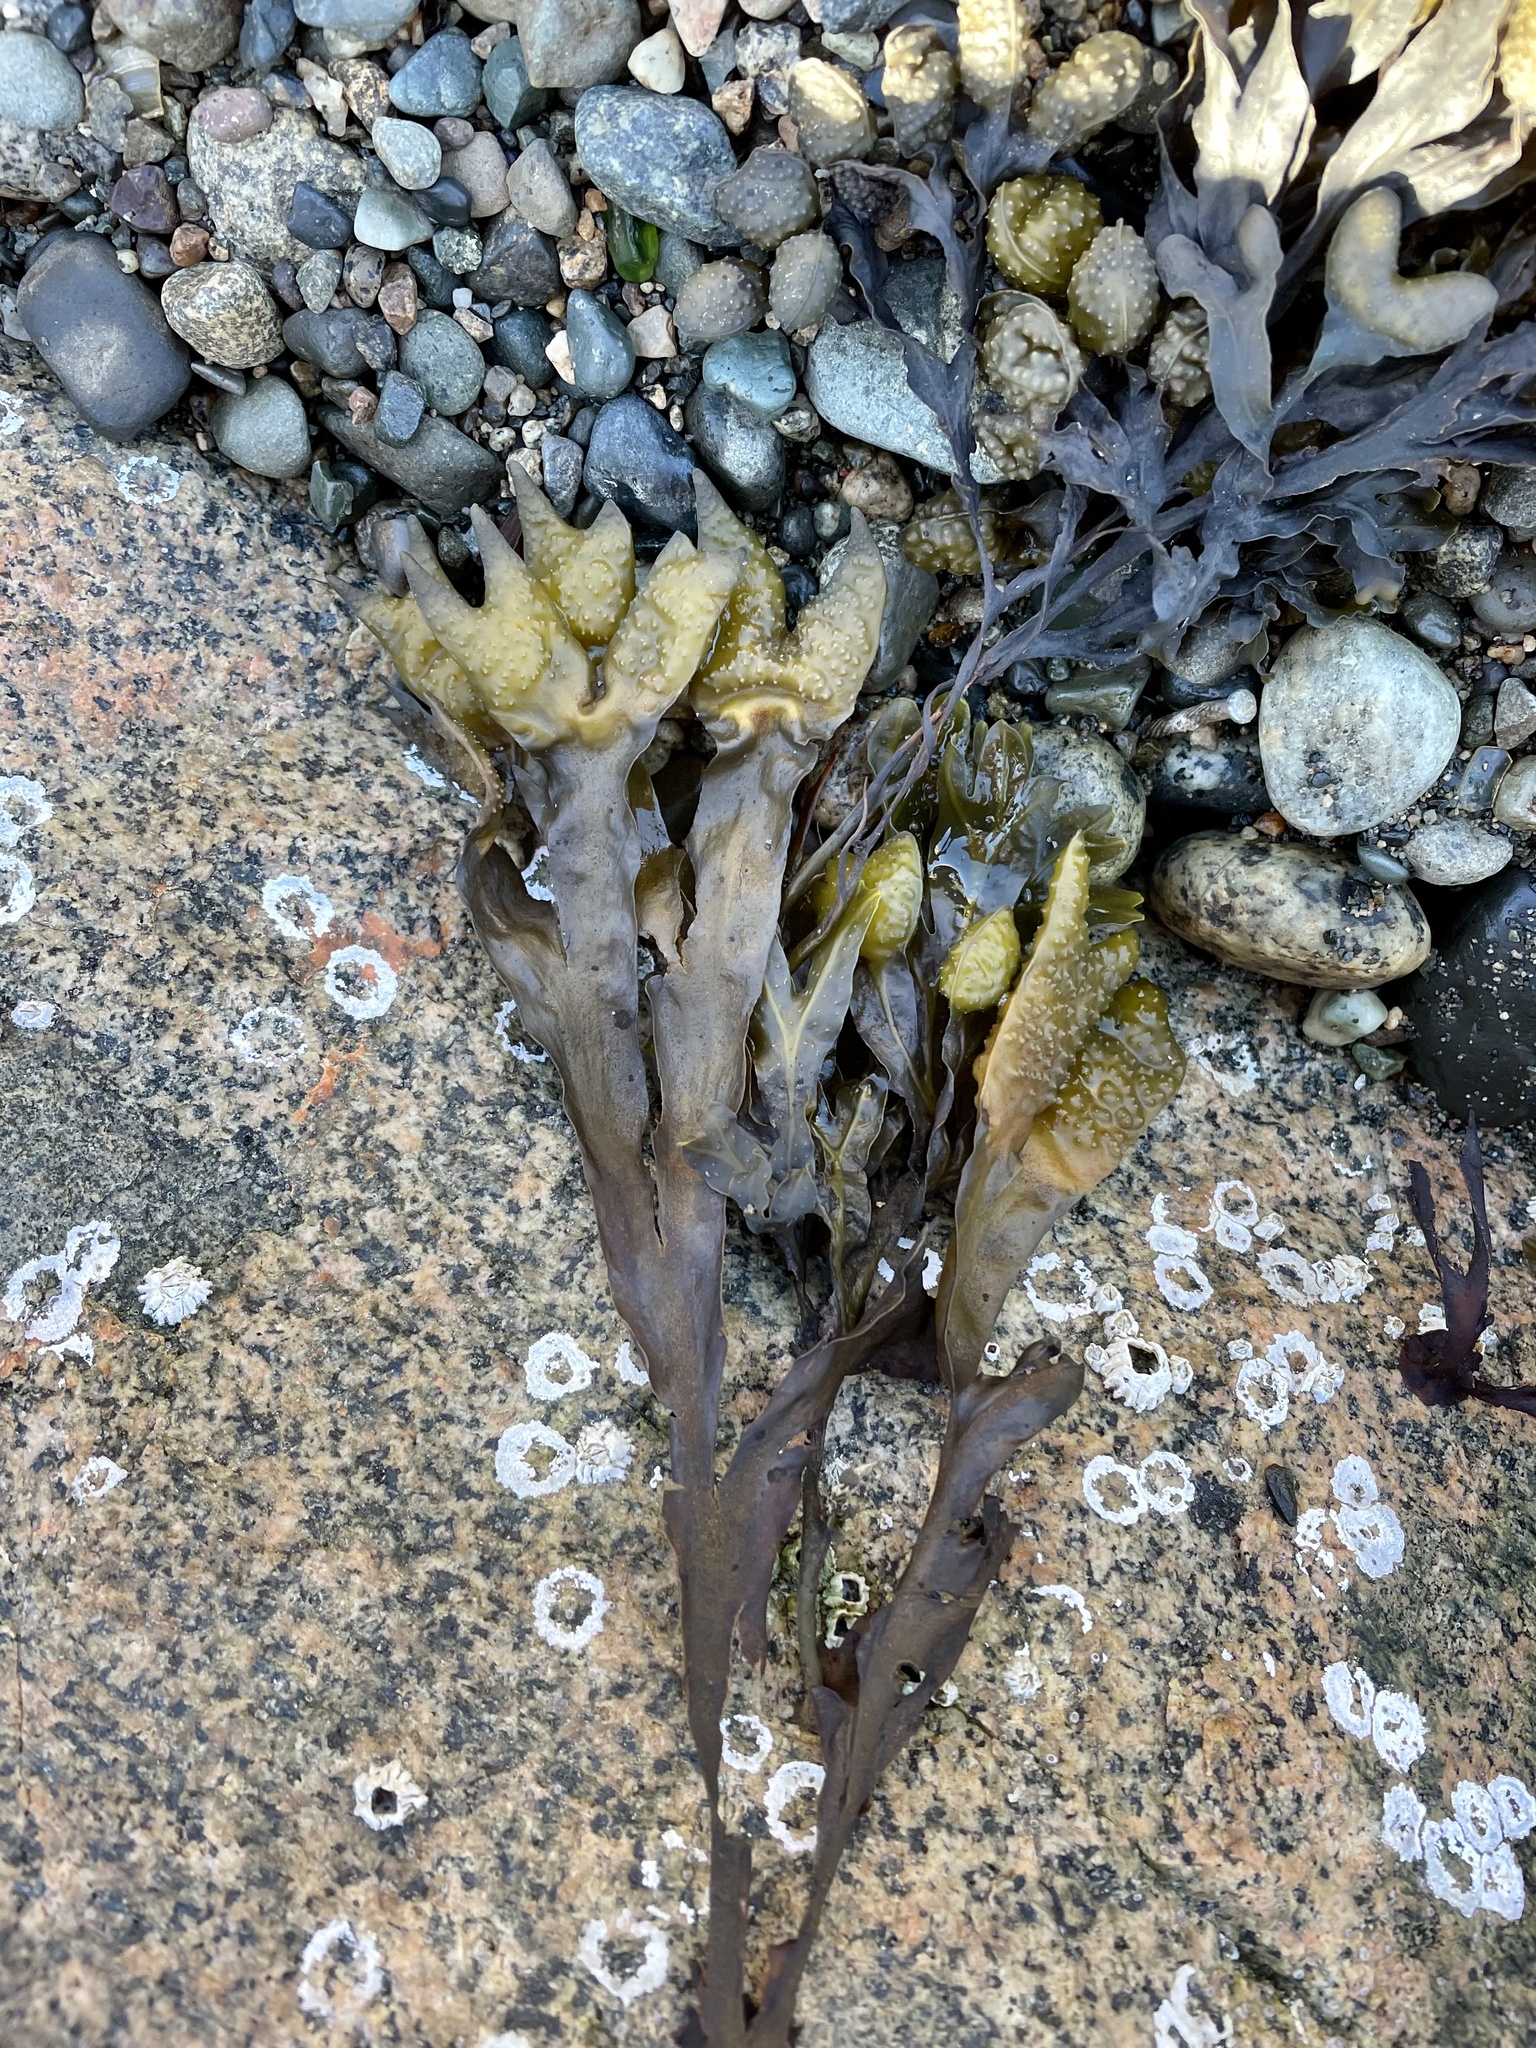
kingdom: Chromista
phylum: Ochrophyta
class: Phaeophyceae
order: Fucales
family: Fucaceae
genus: Fucus
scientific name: Fucus distichus
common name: Rockweed
